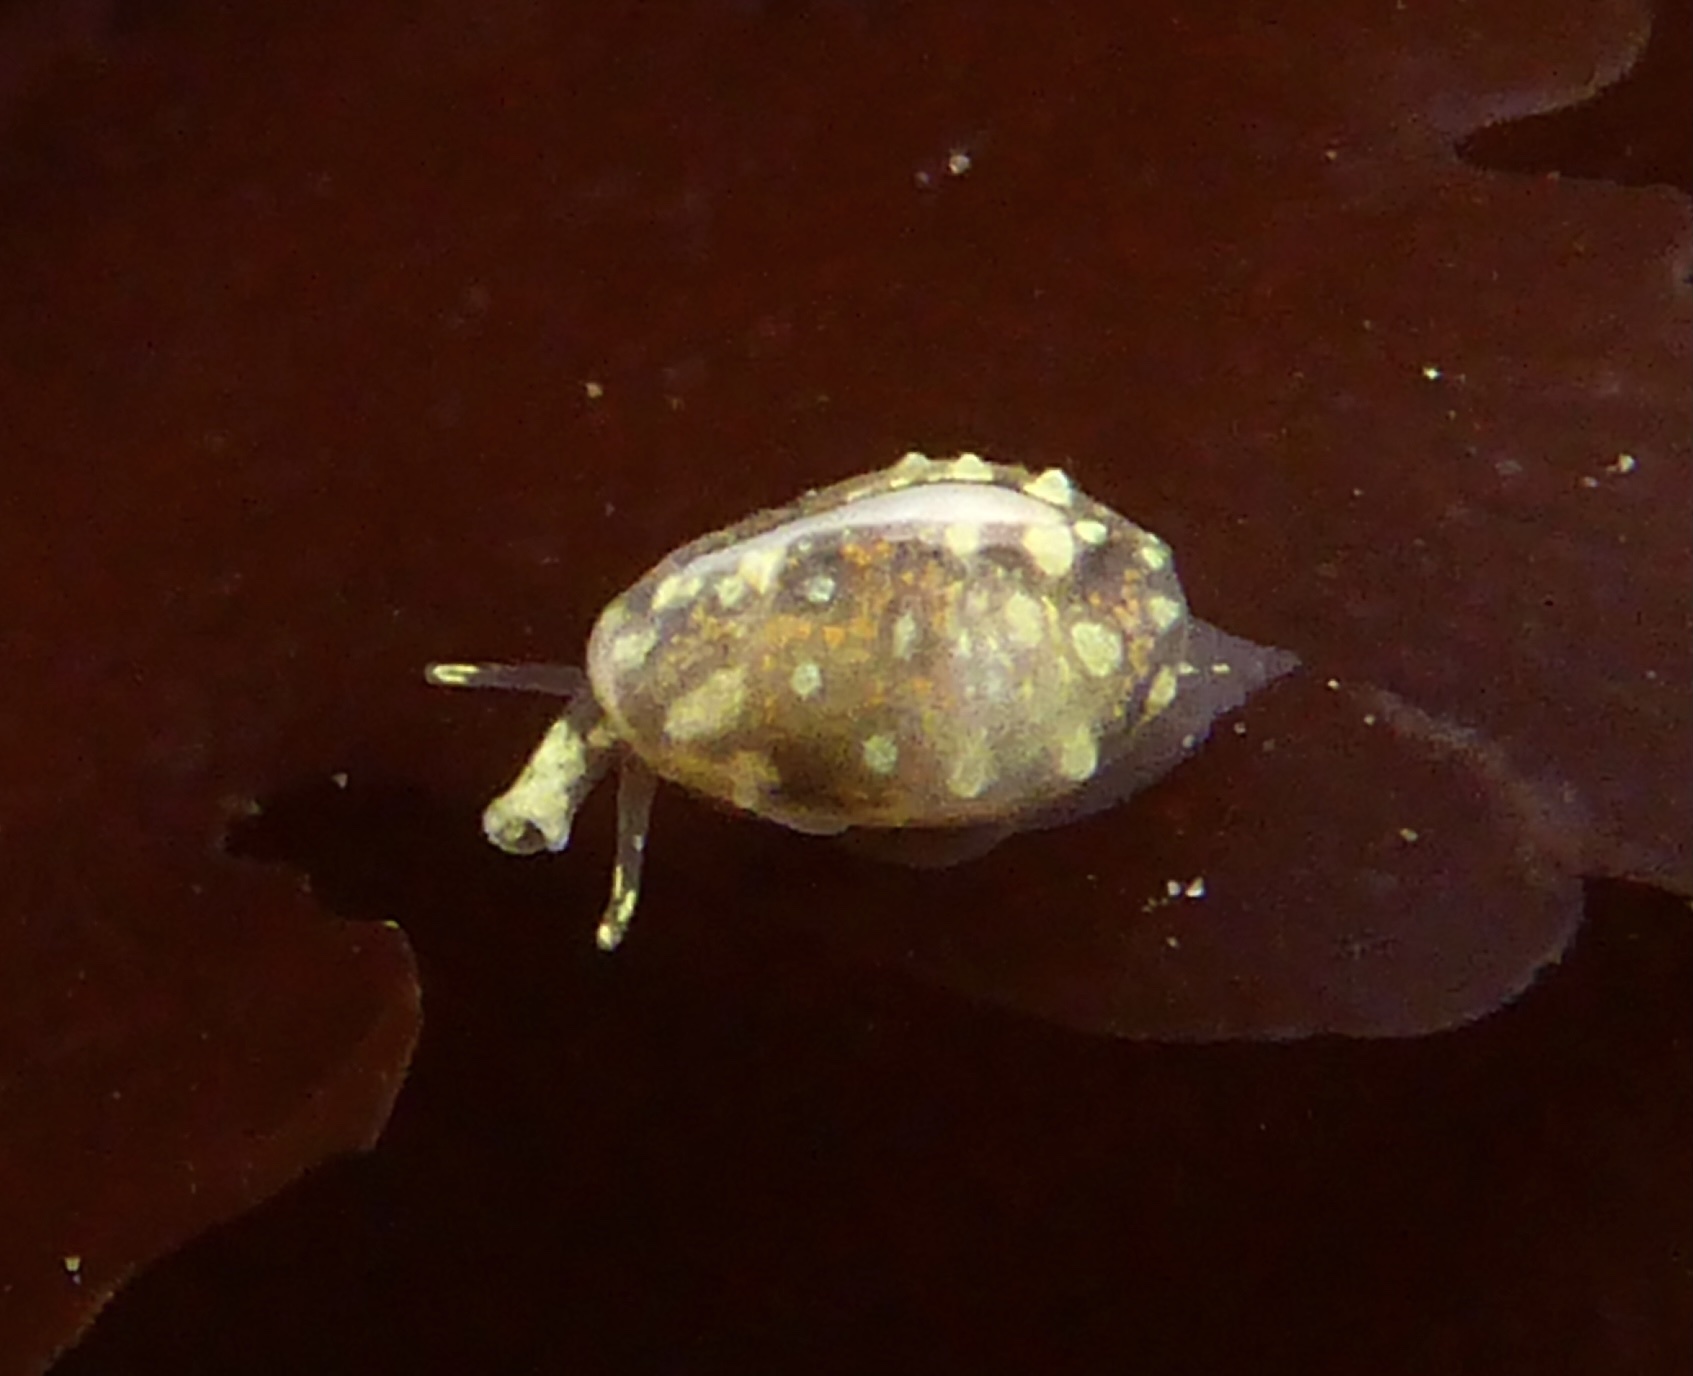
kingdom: Animalia
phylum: Mollusca
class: Gastropoda
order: Neogastropoda
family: Granulinidae
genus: Granulina
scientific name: Granulina margaritula
